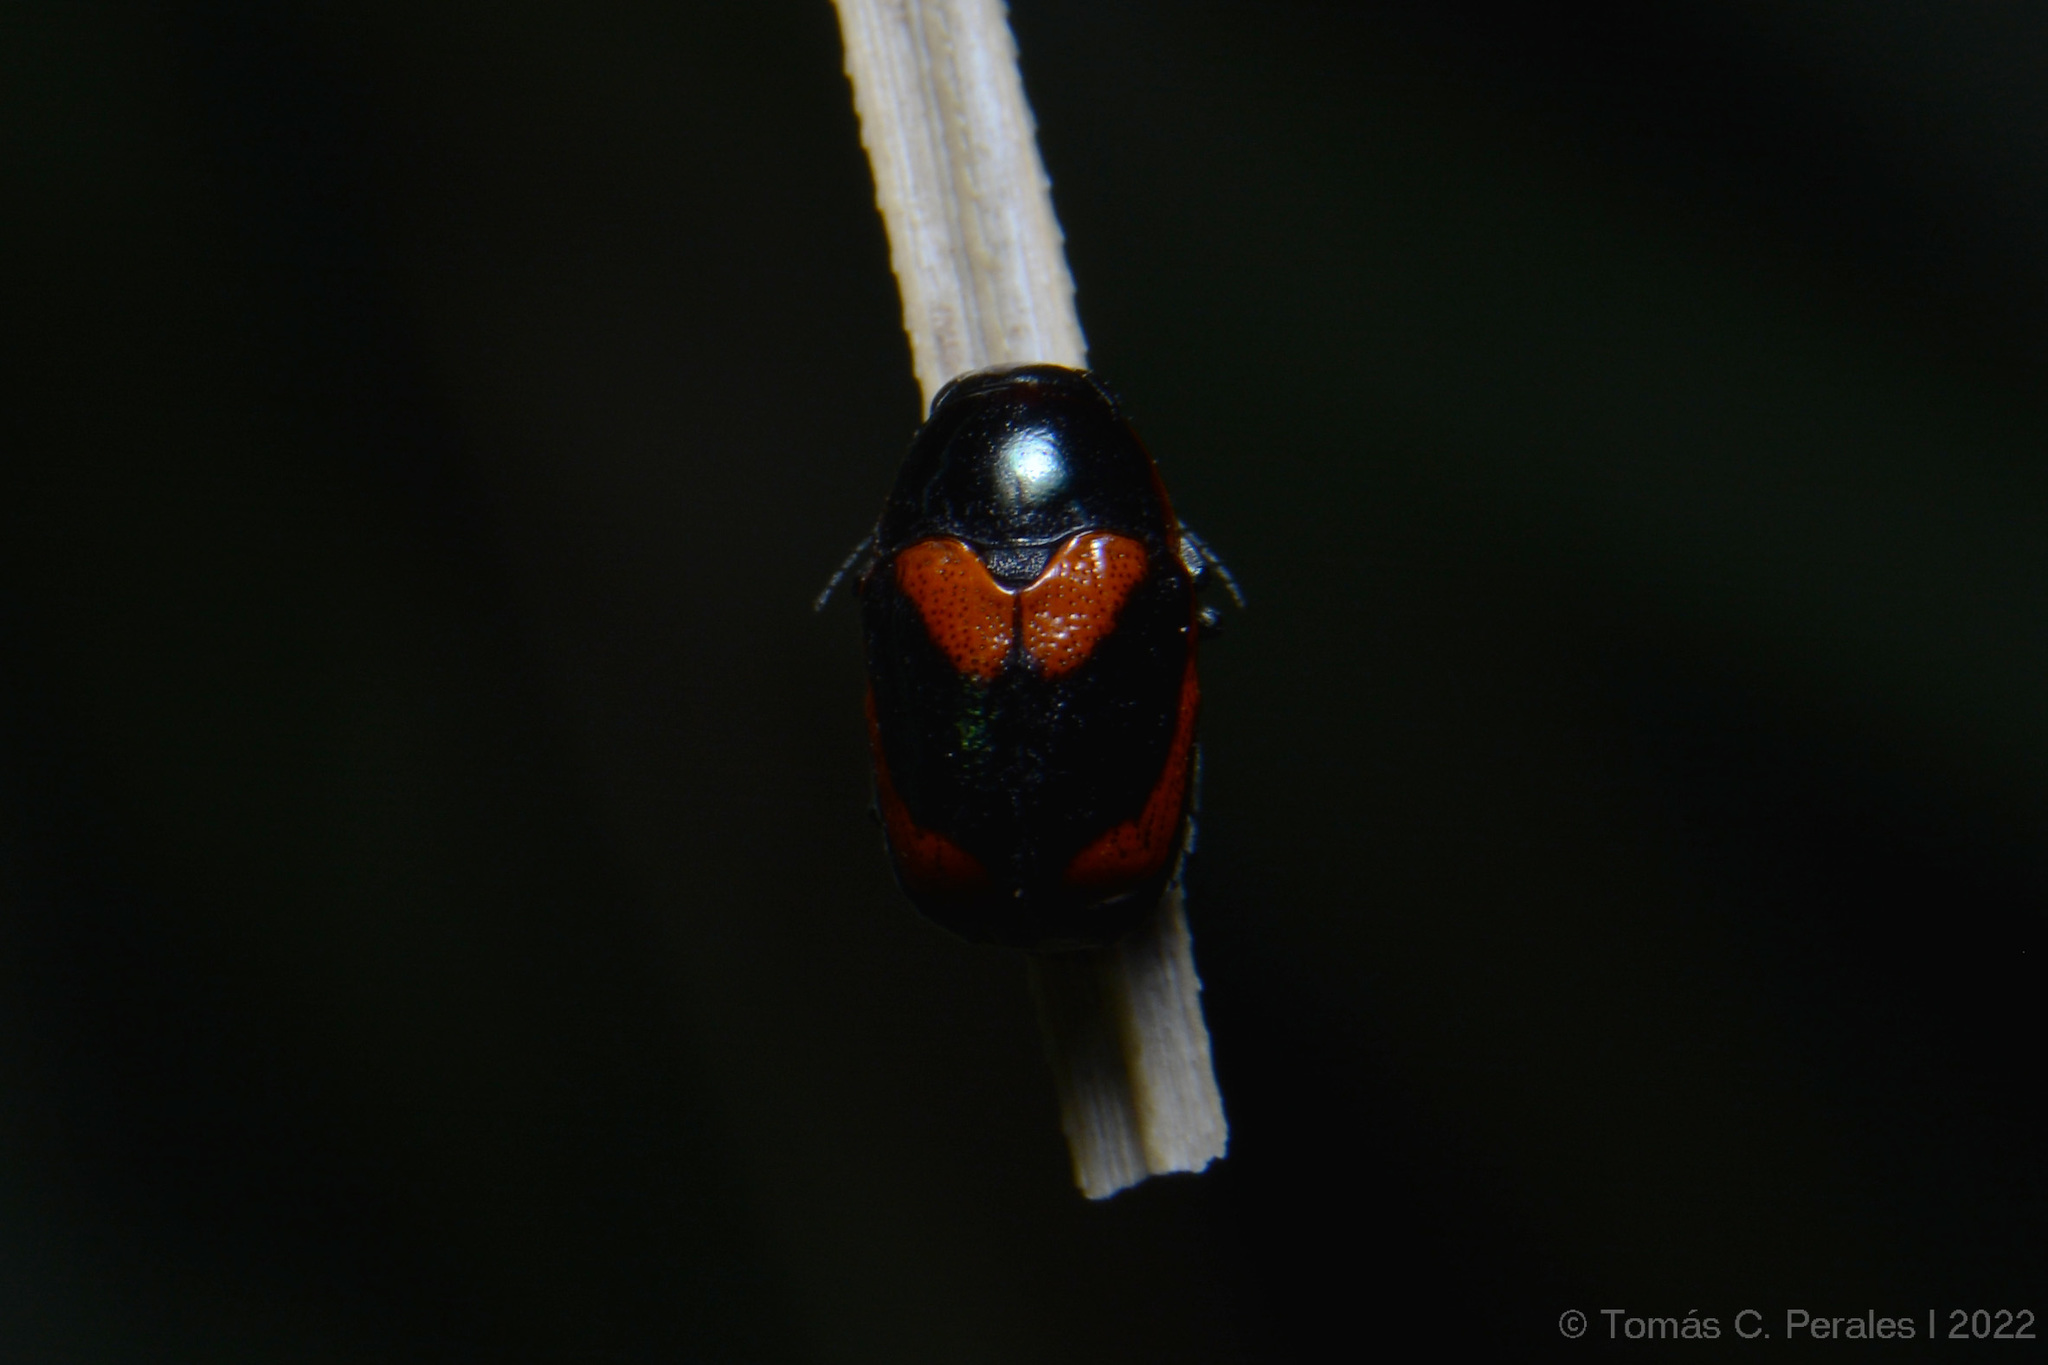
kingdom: Animalia
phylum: Arthropoda
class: Insecta
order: Coleoptera
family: Chrysomelidae
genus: Metallactus
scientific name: Metallactus
